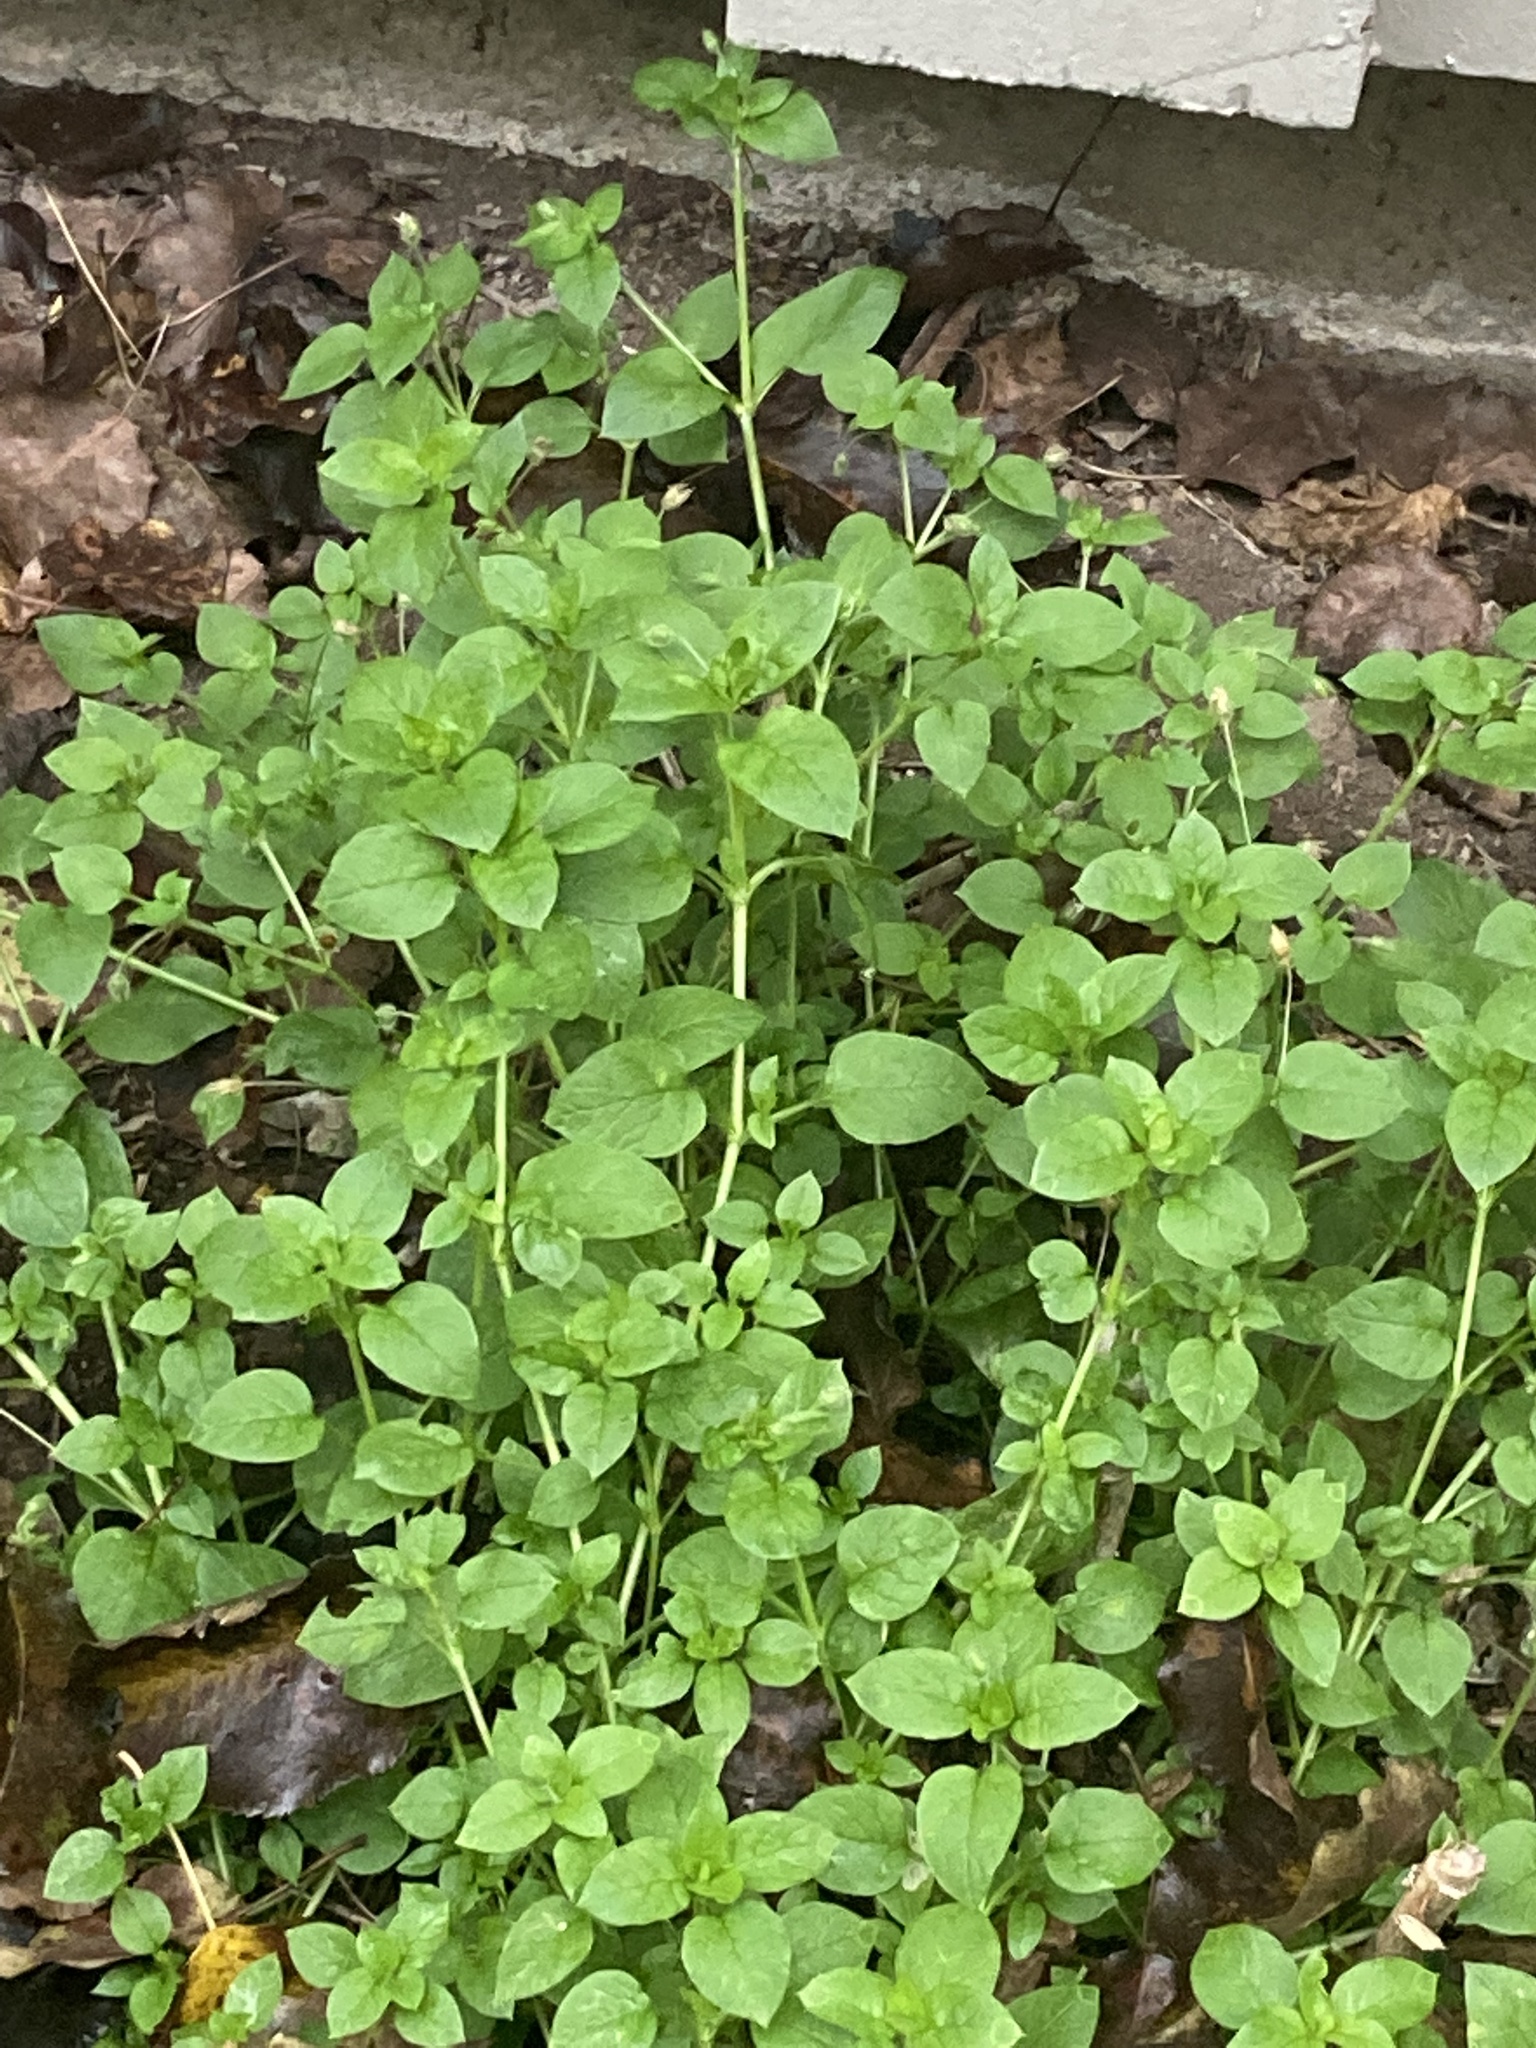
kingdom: Plantae
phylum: Tracheophyta
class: Magnoliopsida
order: Caryophyllales
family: Caryophyllaceae
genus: Stellaria
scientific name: Stellaria media
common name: Common chickweed
